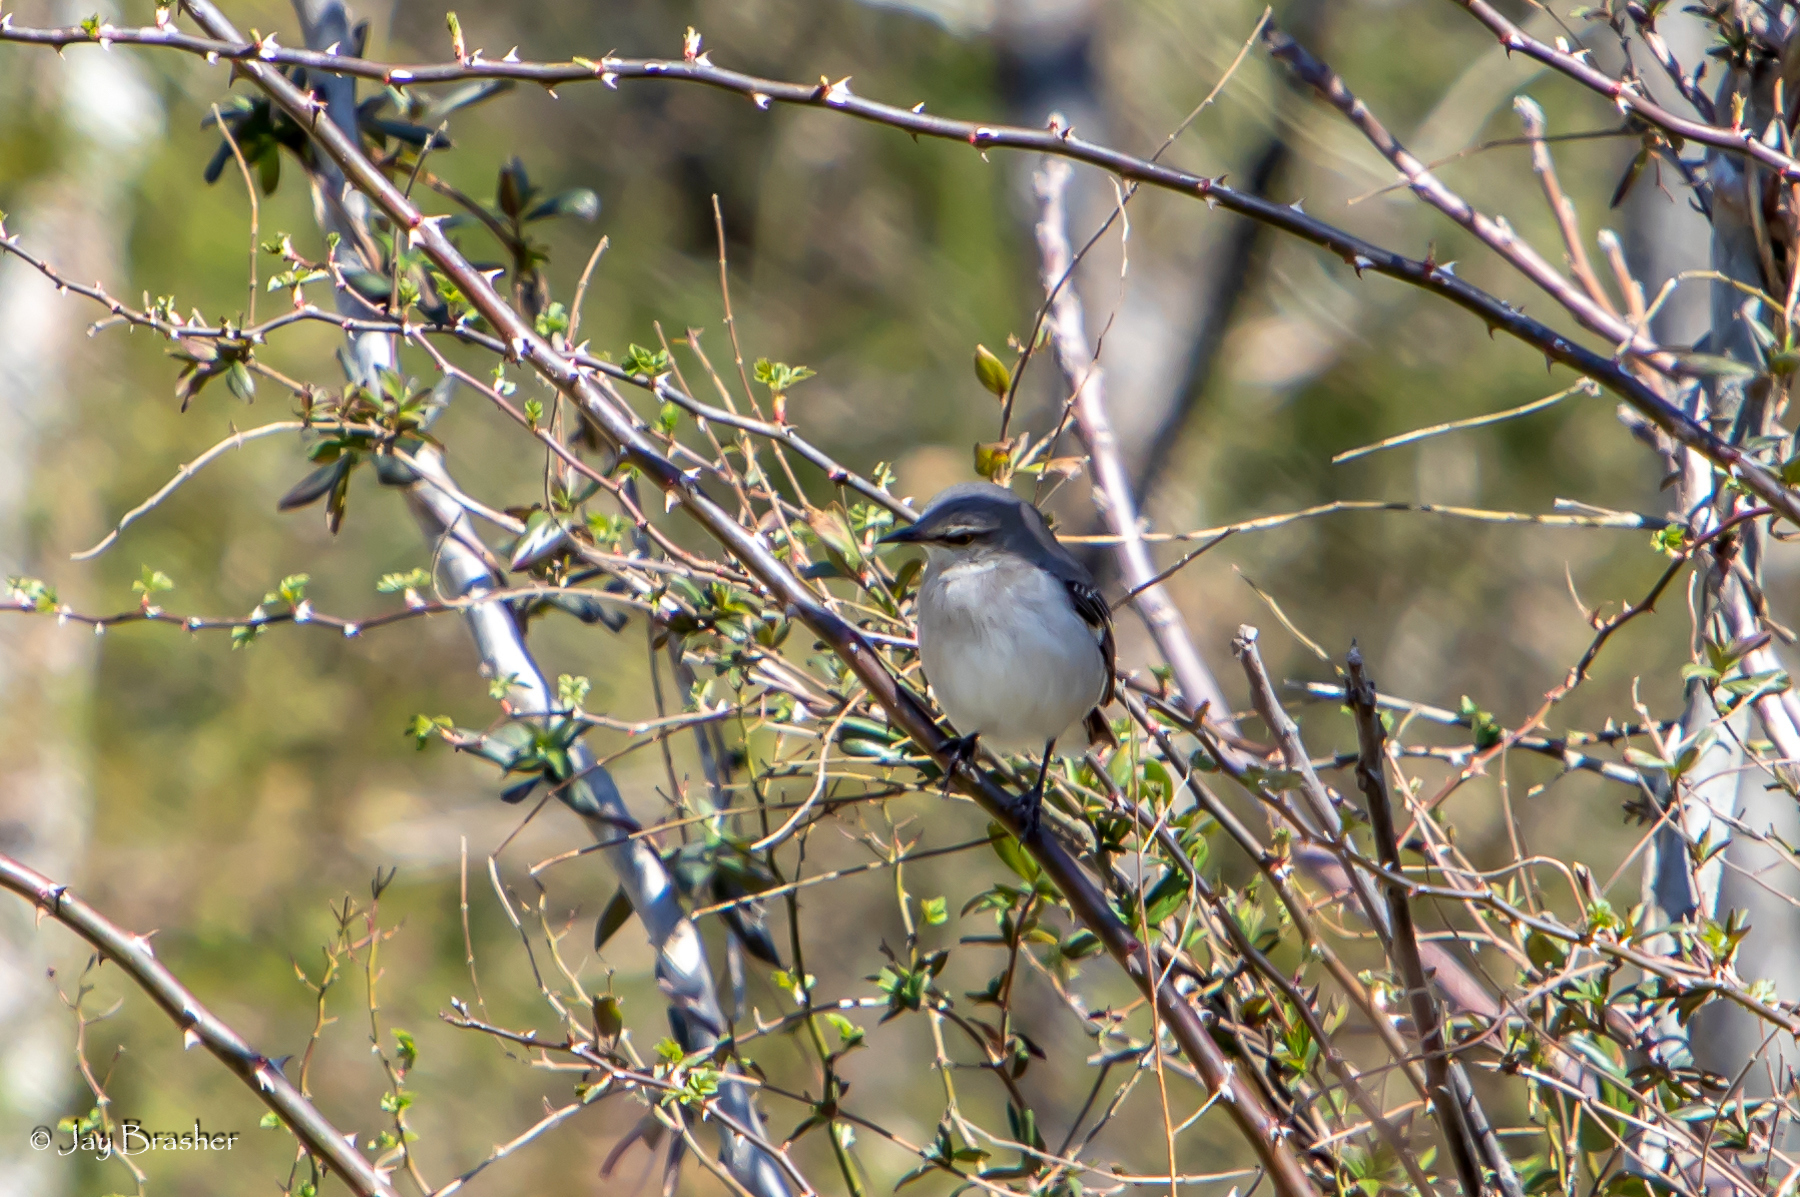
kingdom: Animalia
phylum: Chordata
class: Aves
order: Passeriformes
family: Mimidae
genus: Mimus
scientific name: Mimus polyglottos
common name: Northern mockingbird
